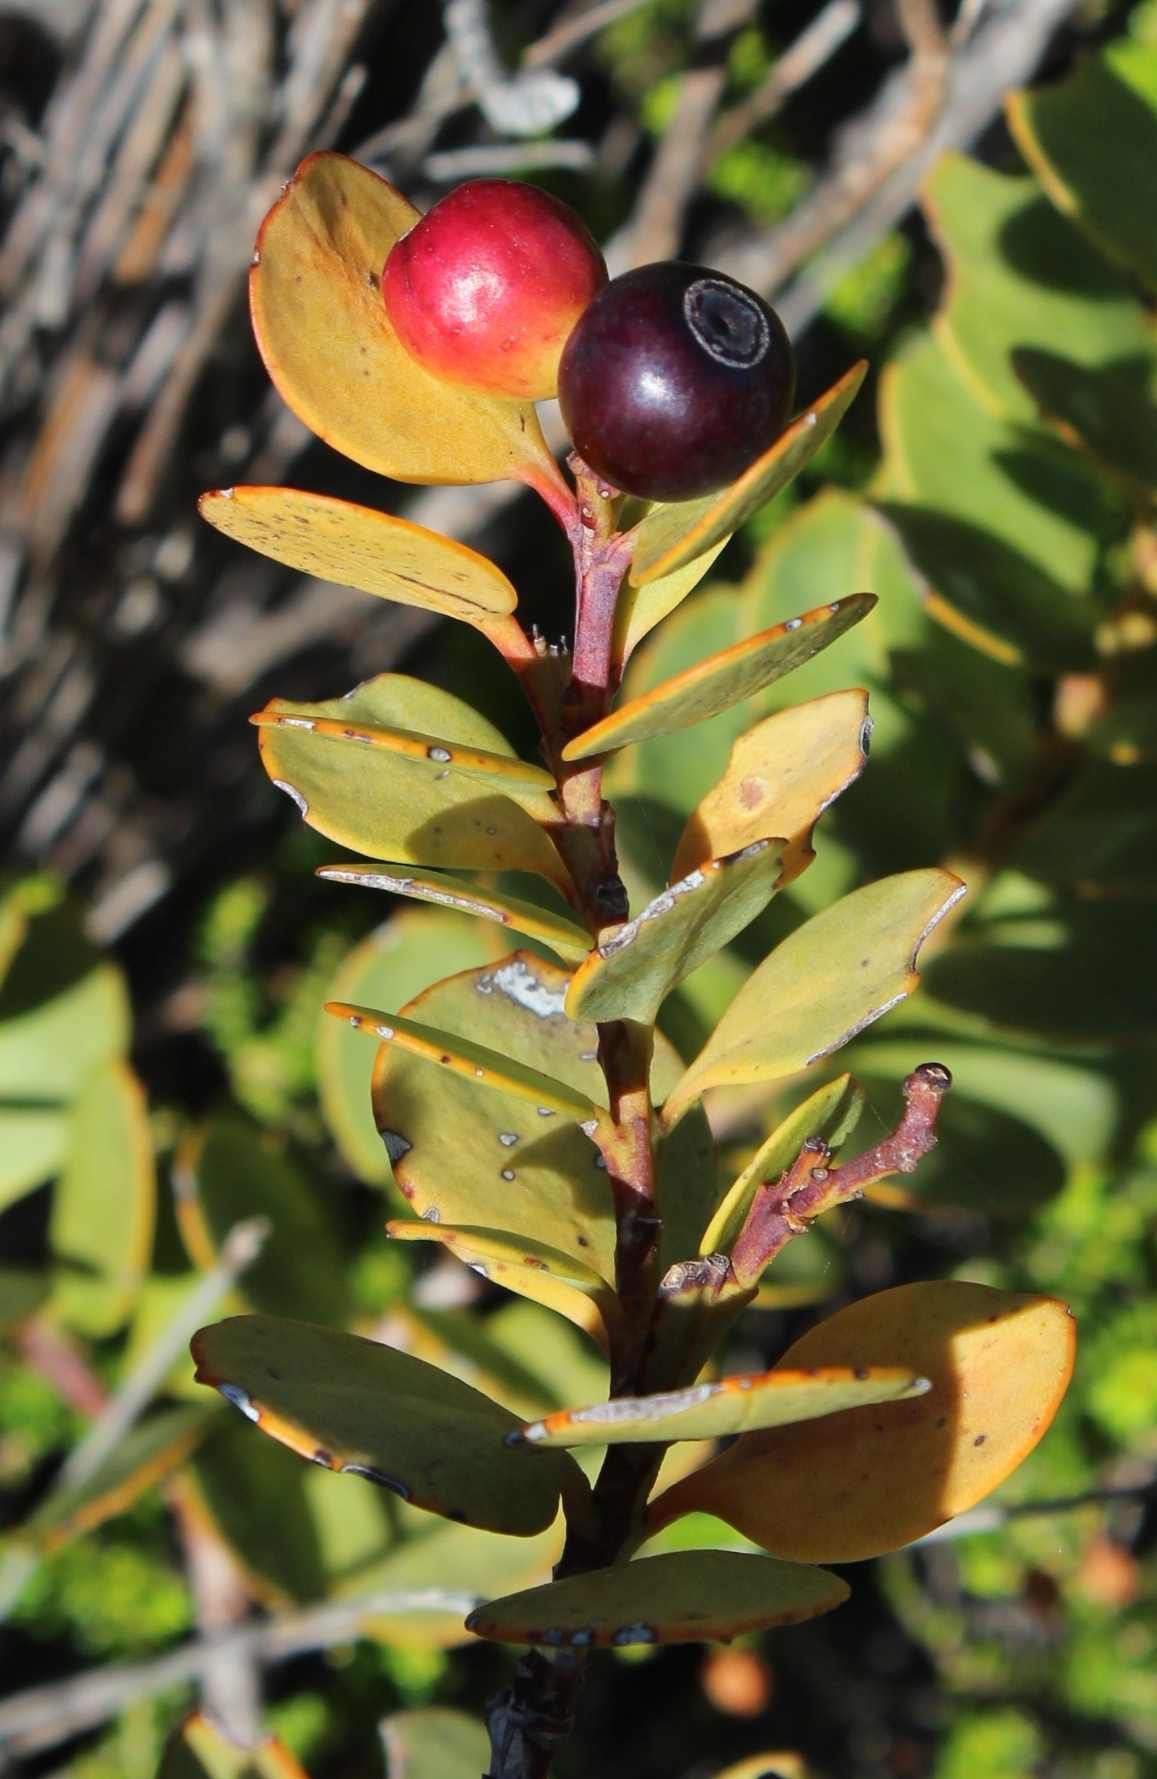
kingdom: Plantae
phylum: Tracheophyta
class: Magnoliopsida
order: Santalales
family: Santalaceae
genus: Osyris
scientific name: Osyris compressa
